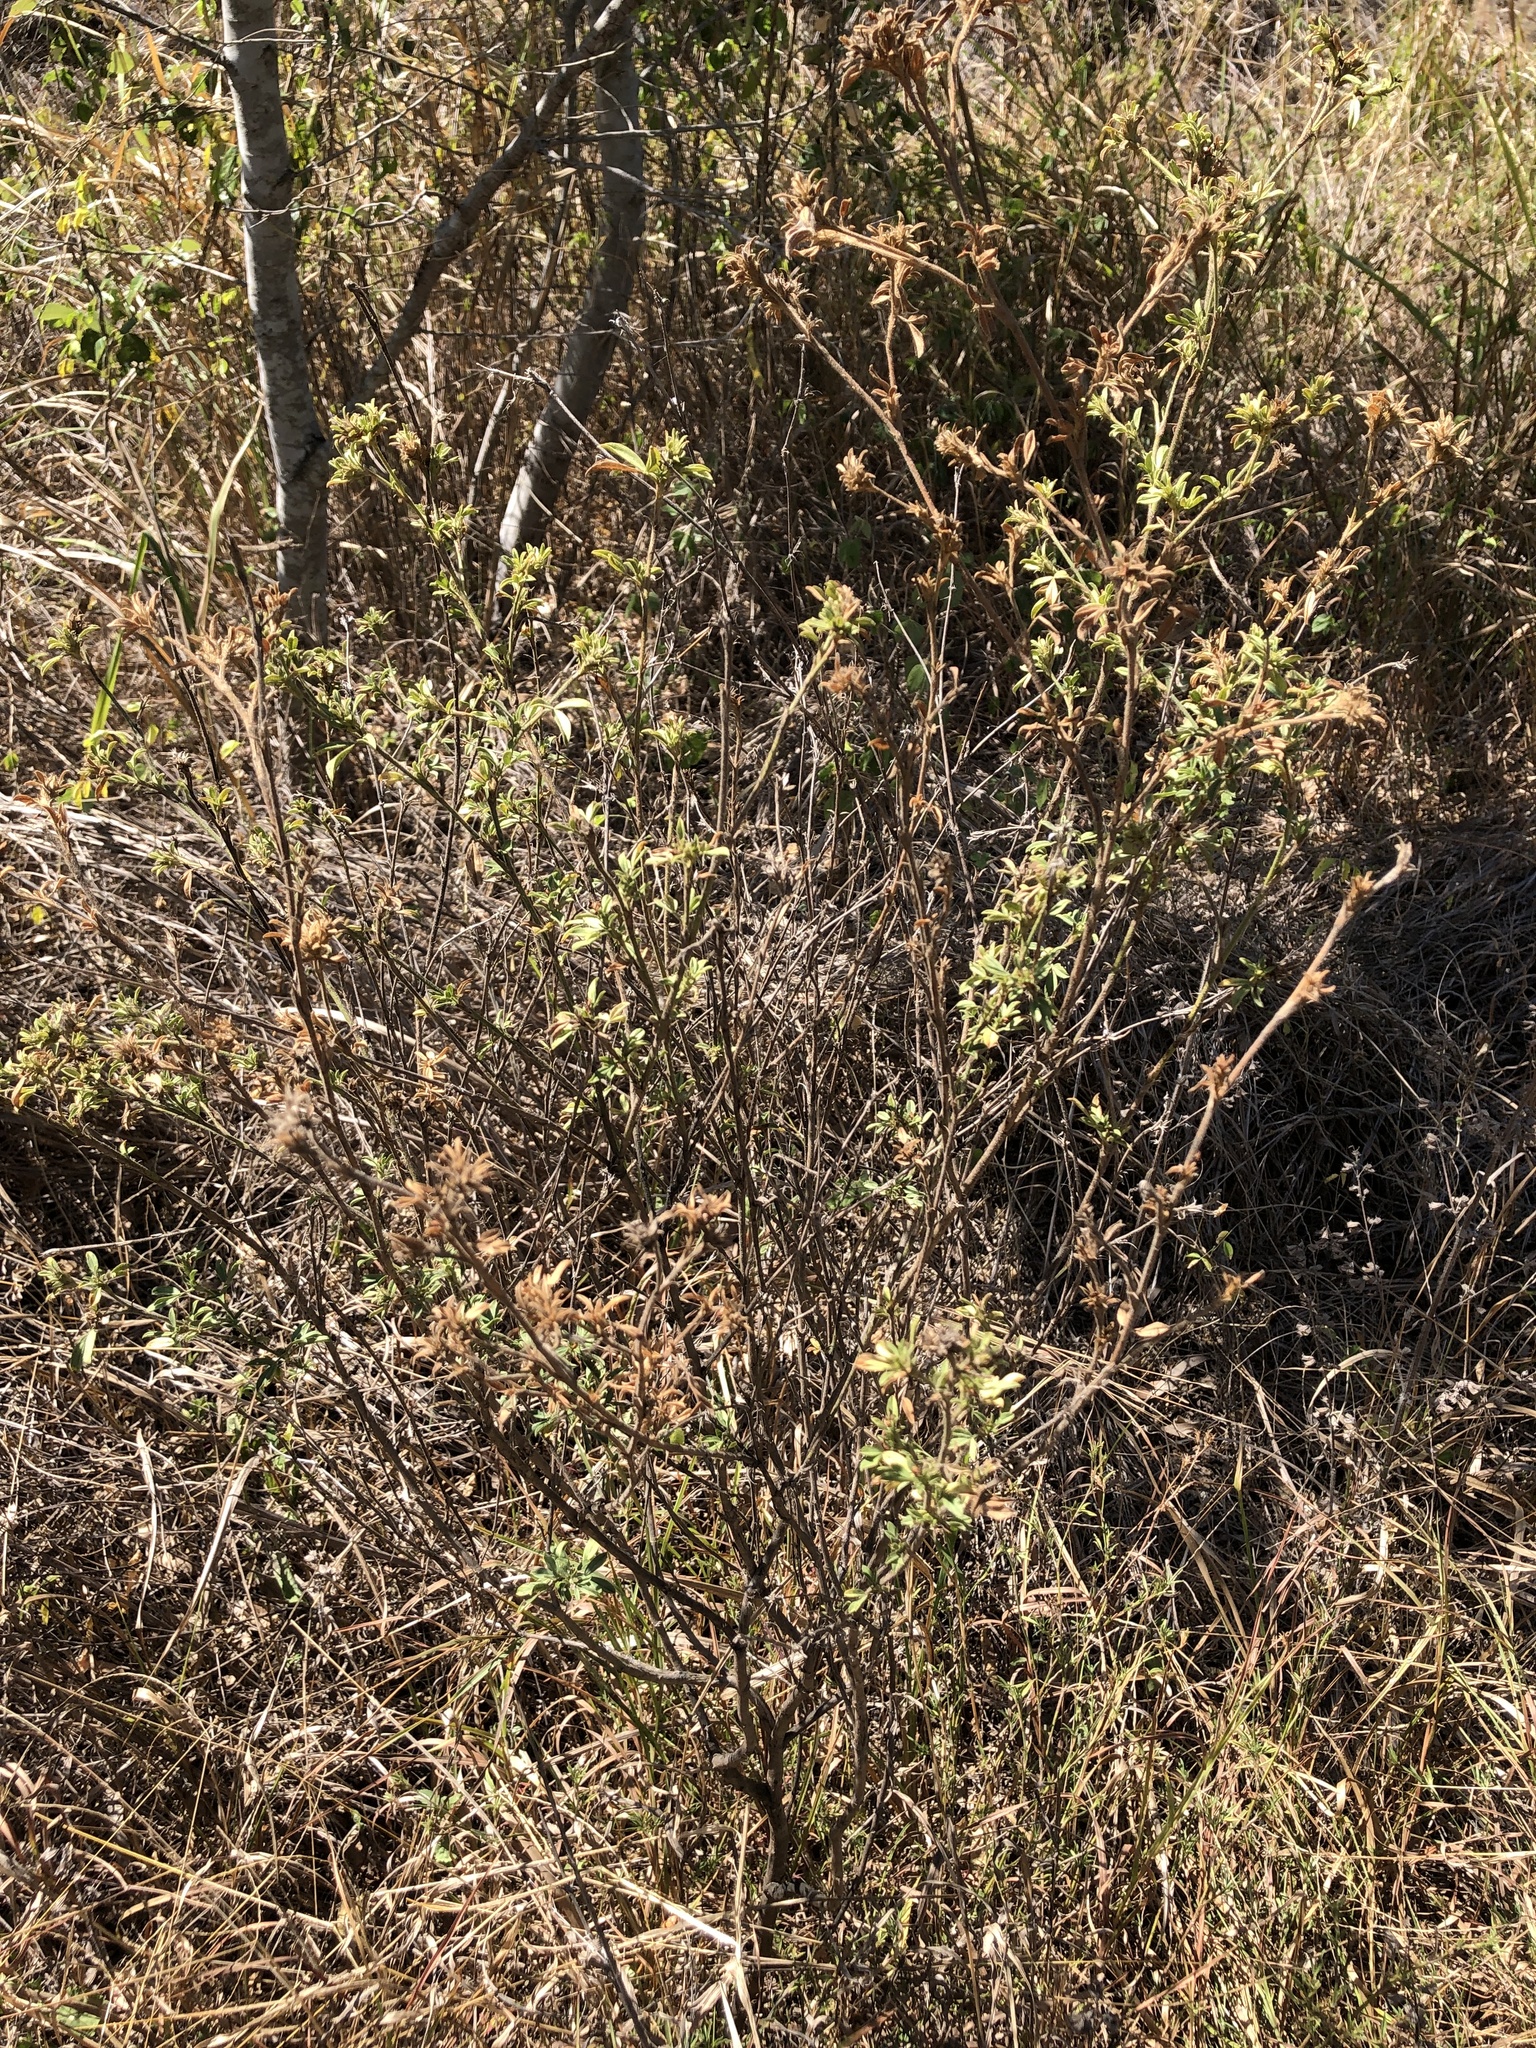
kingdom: Plantae
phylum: Tracheophyta
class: Magnoliopsida
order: Fabales
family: Fabaceae
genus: Stylosanthes
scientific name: Stylosanthes scabra
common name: Pencilflower
